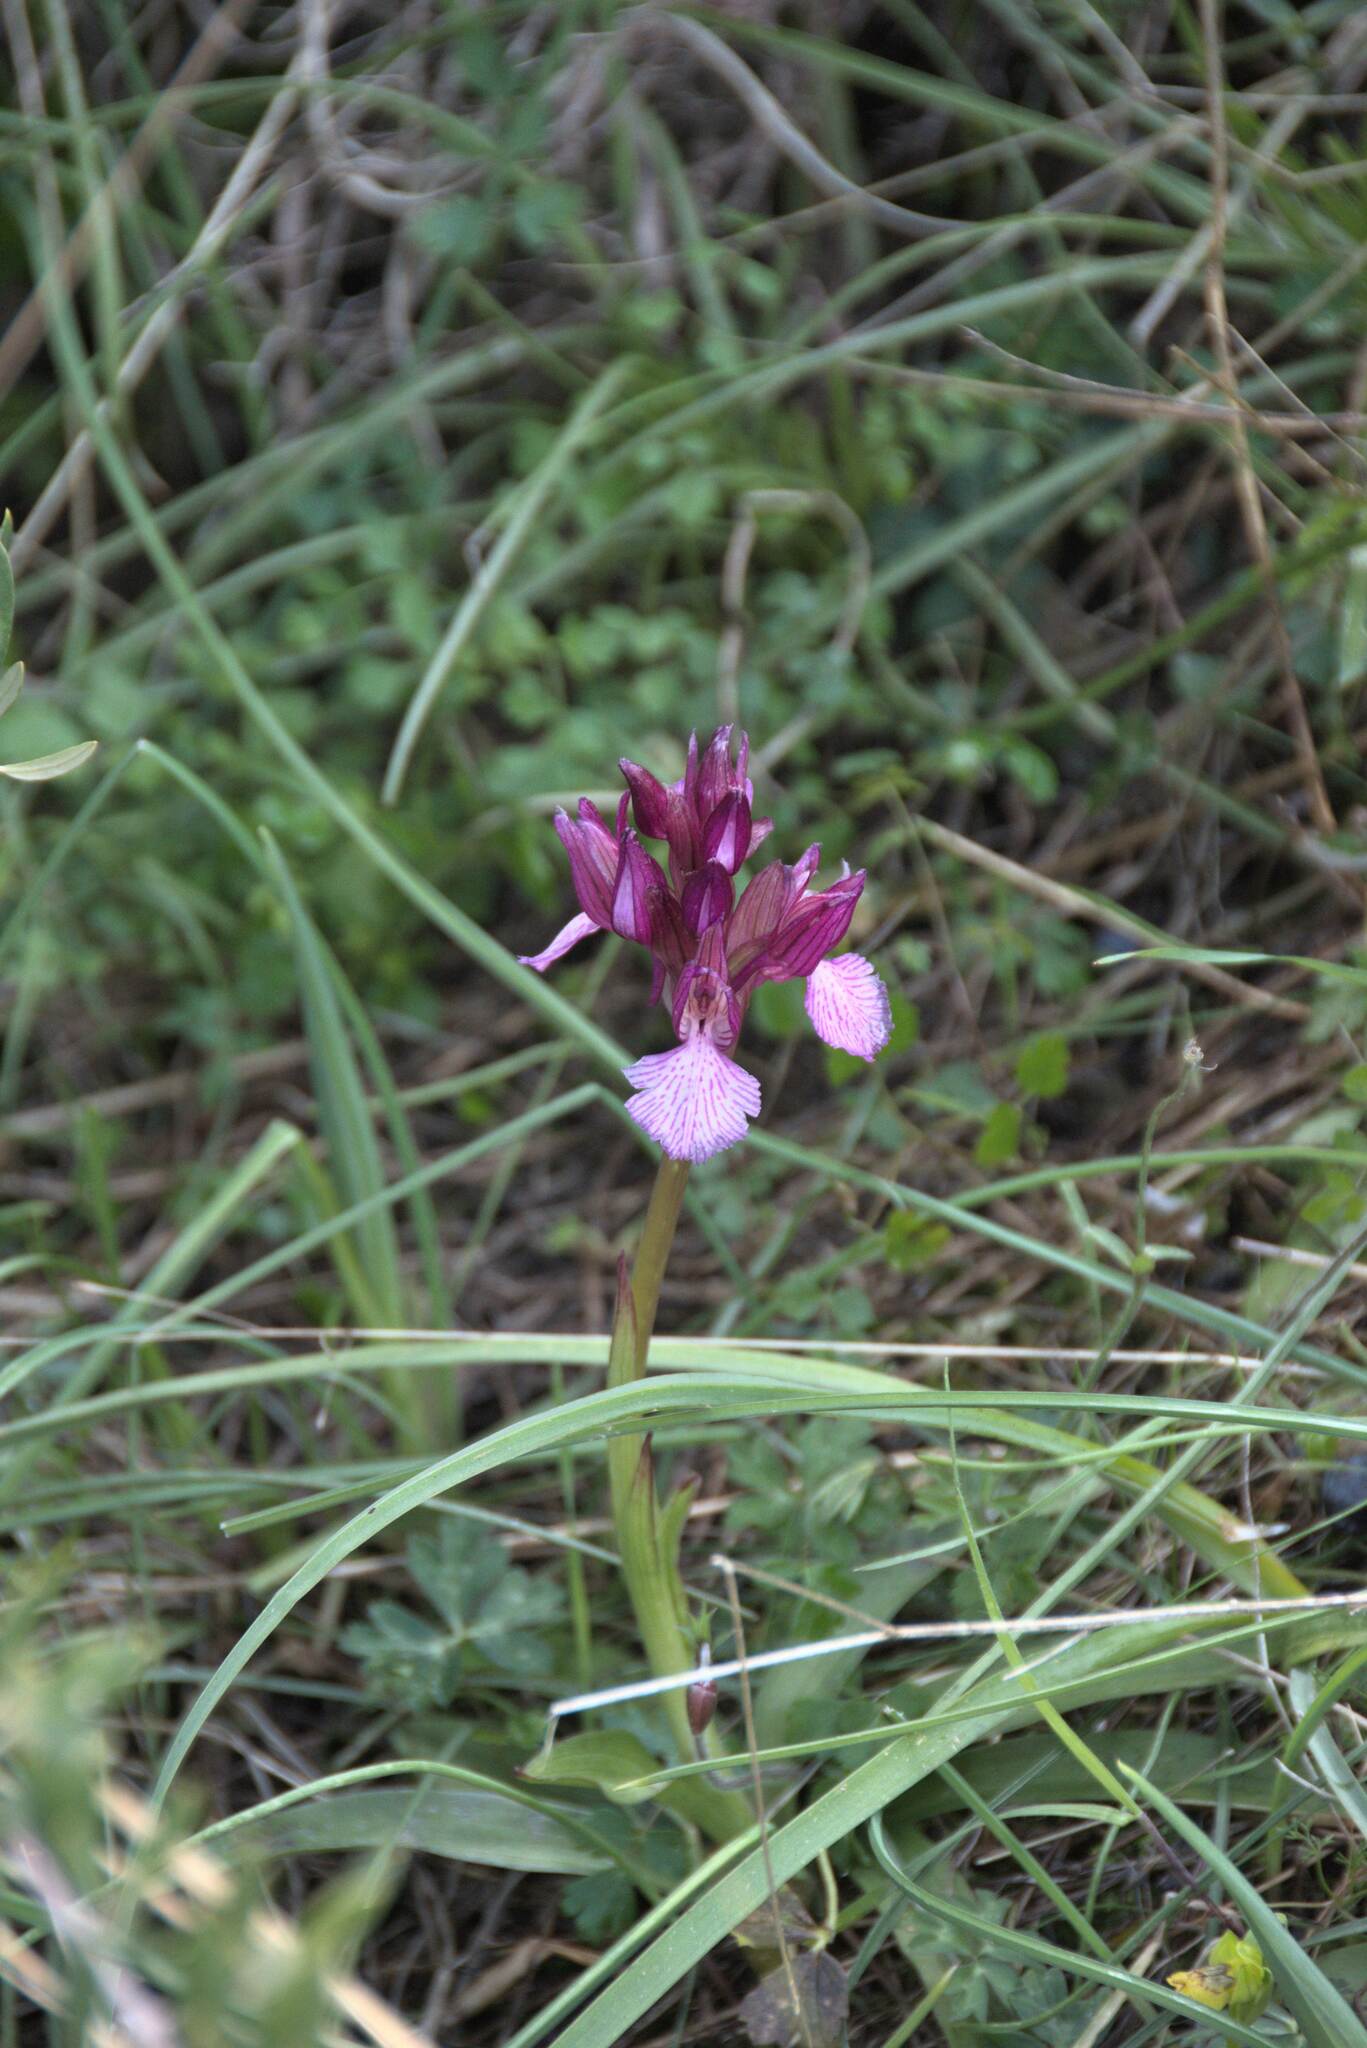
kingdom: Plantae
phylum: Tracheophyta
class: Liliopsida
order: Asparagales
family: Orchidaceae
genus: Anacamptis
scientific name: Anacamptis papilionacea
